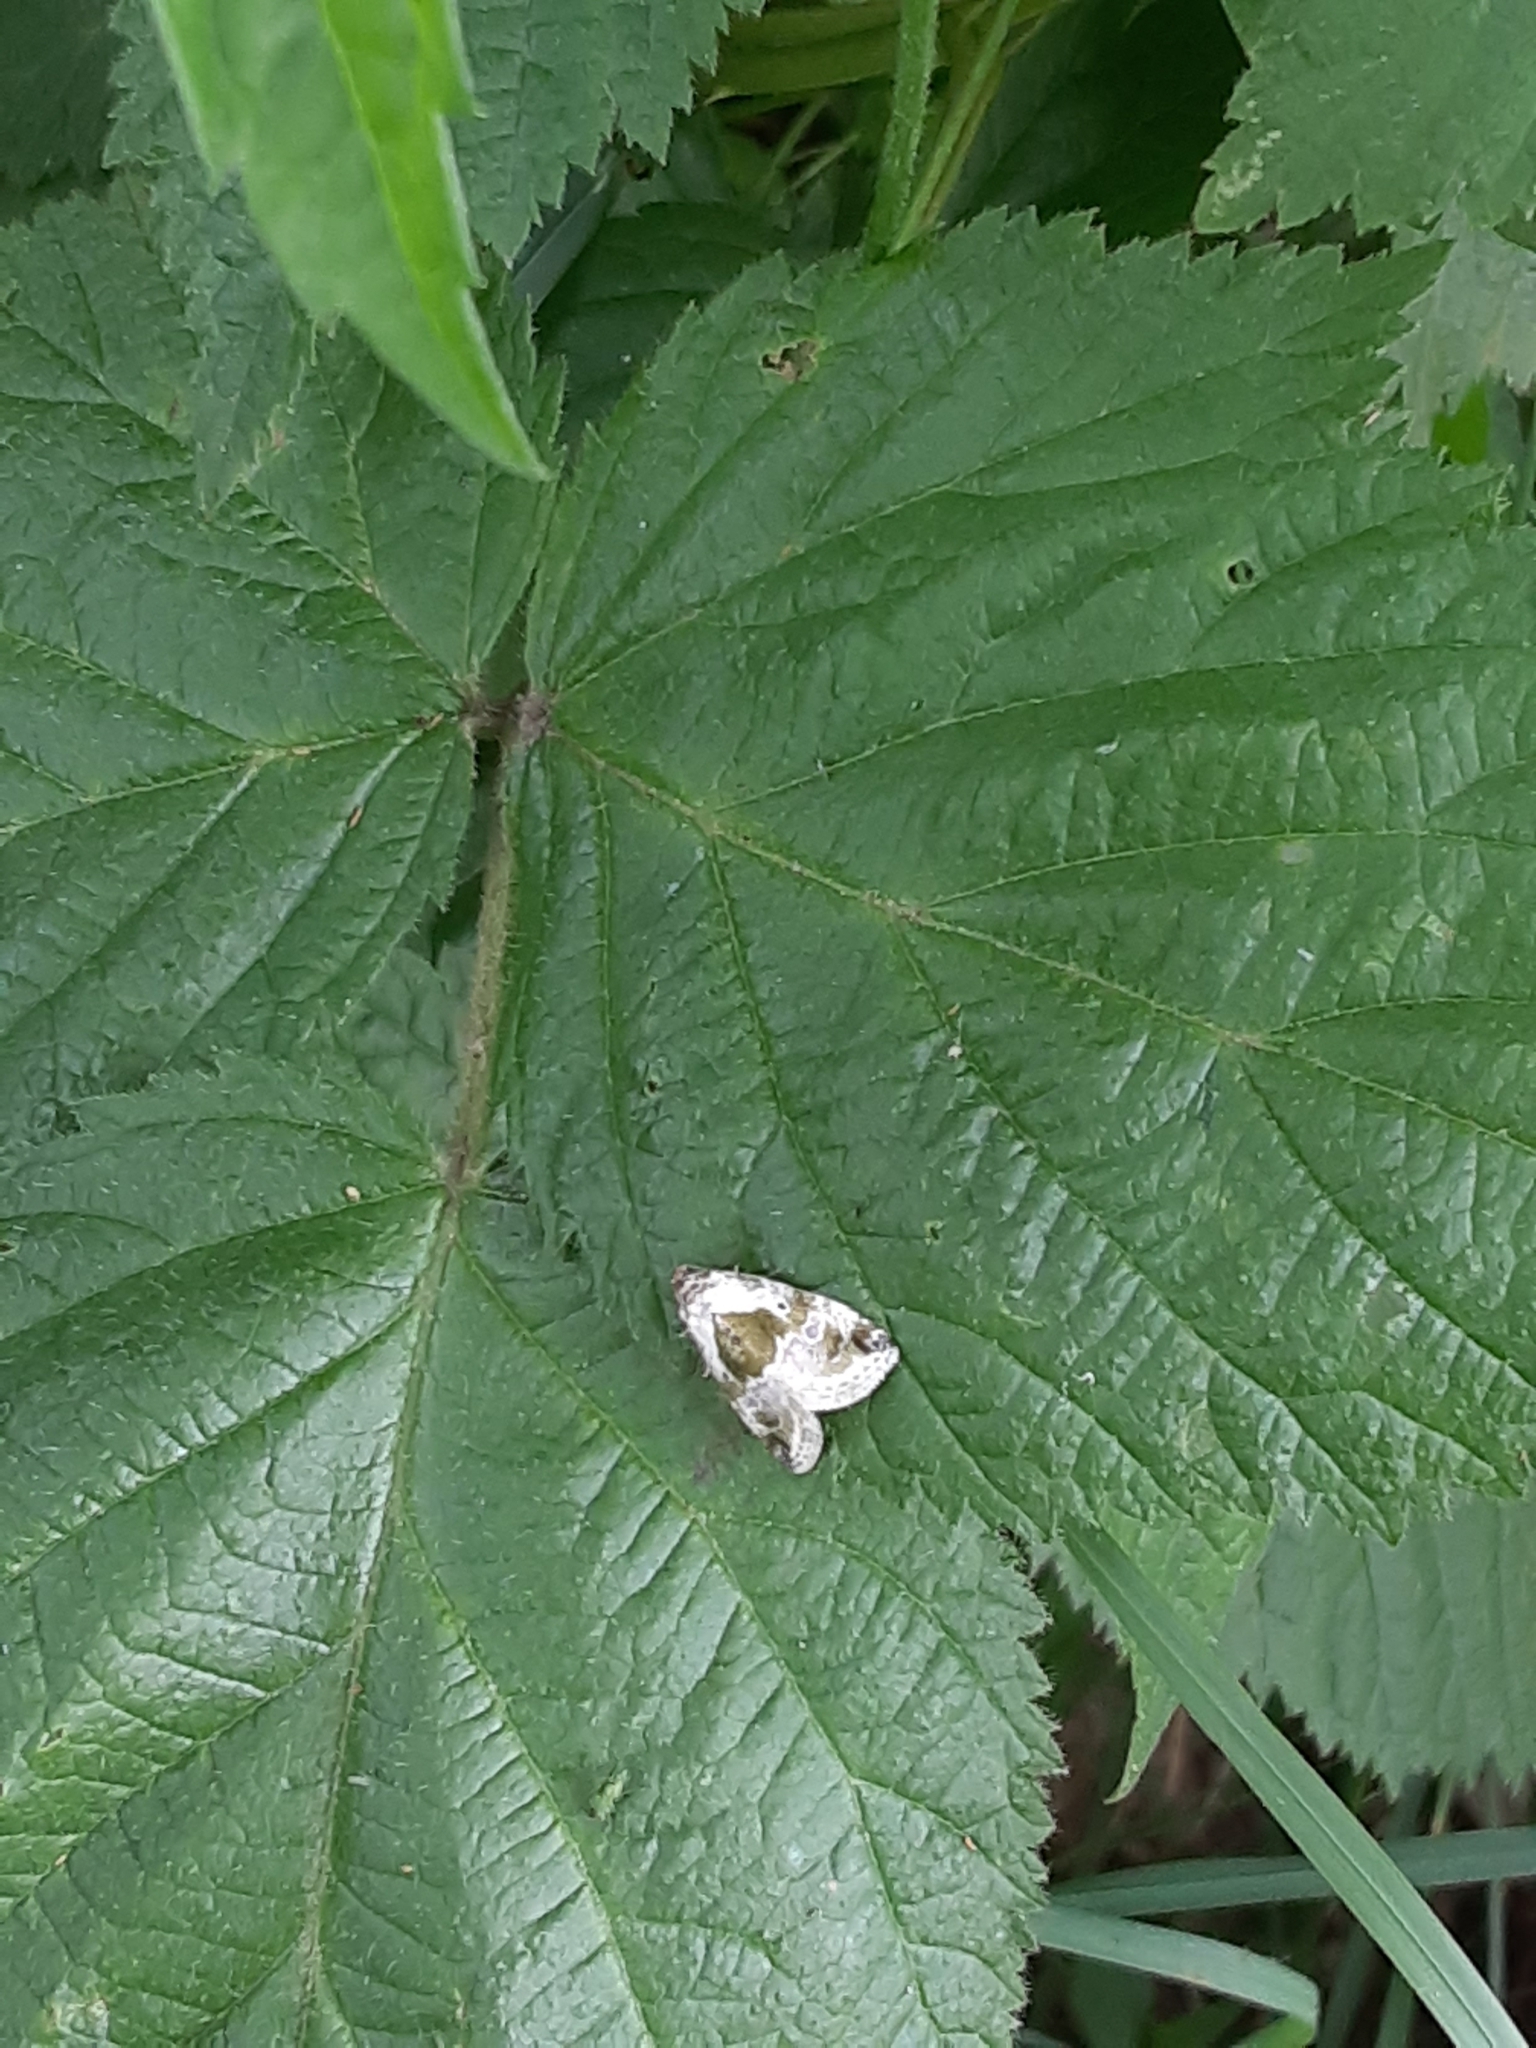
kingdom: Animalia
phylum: Arthropoda
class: Insecta
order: Lepidoptera
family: Noctuidae
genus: Maliattha
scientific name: Maliattha synochitis
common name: Black-dotted glyph
